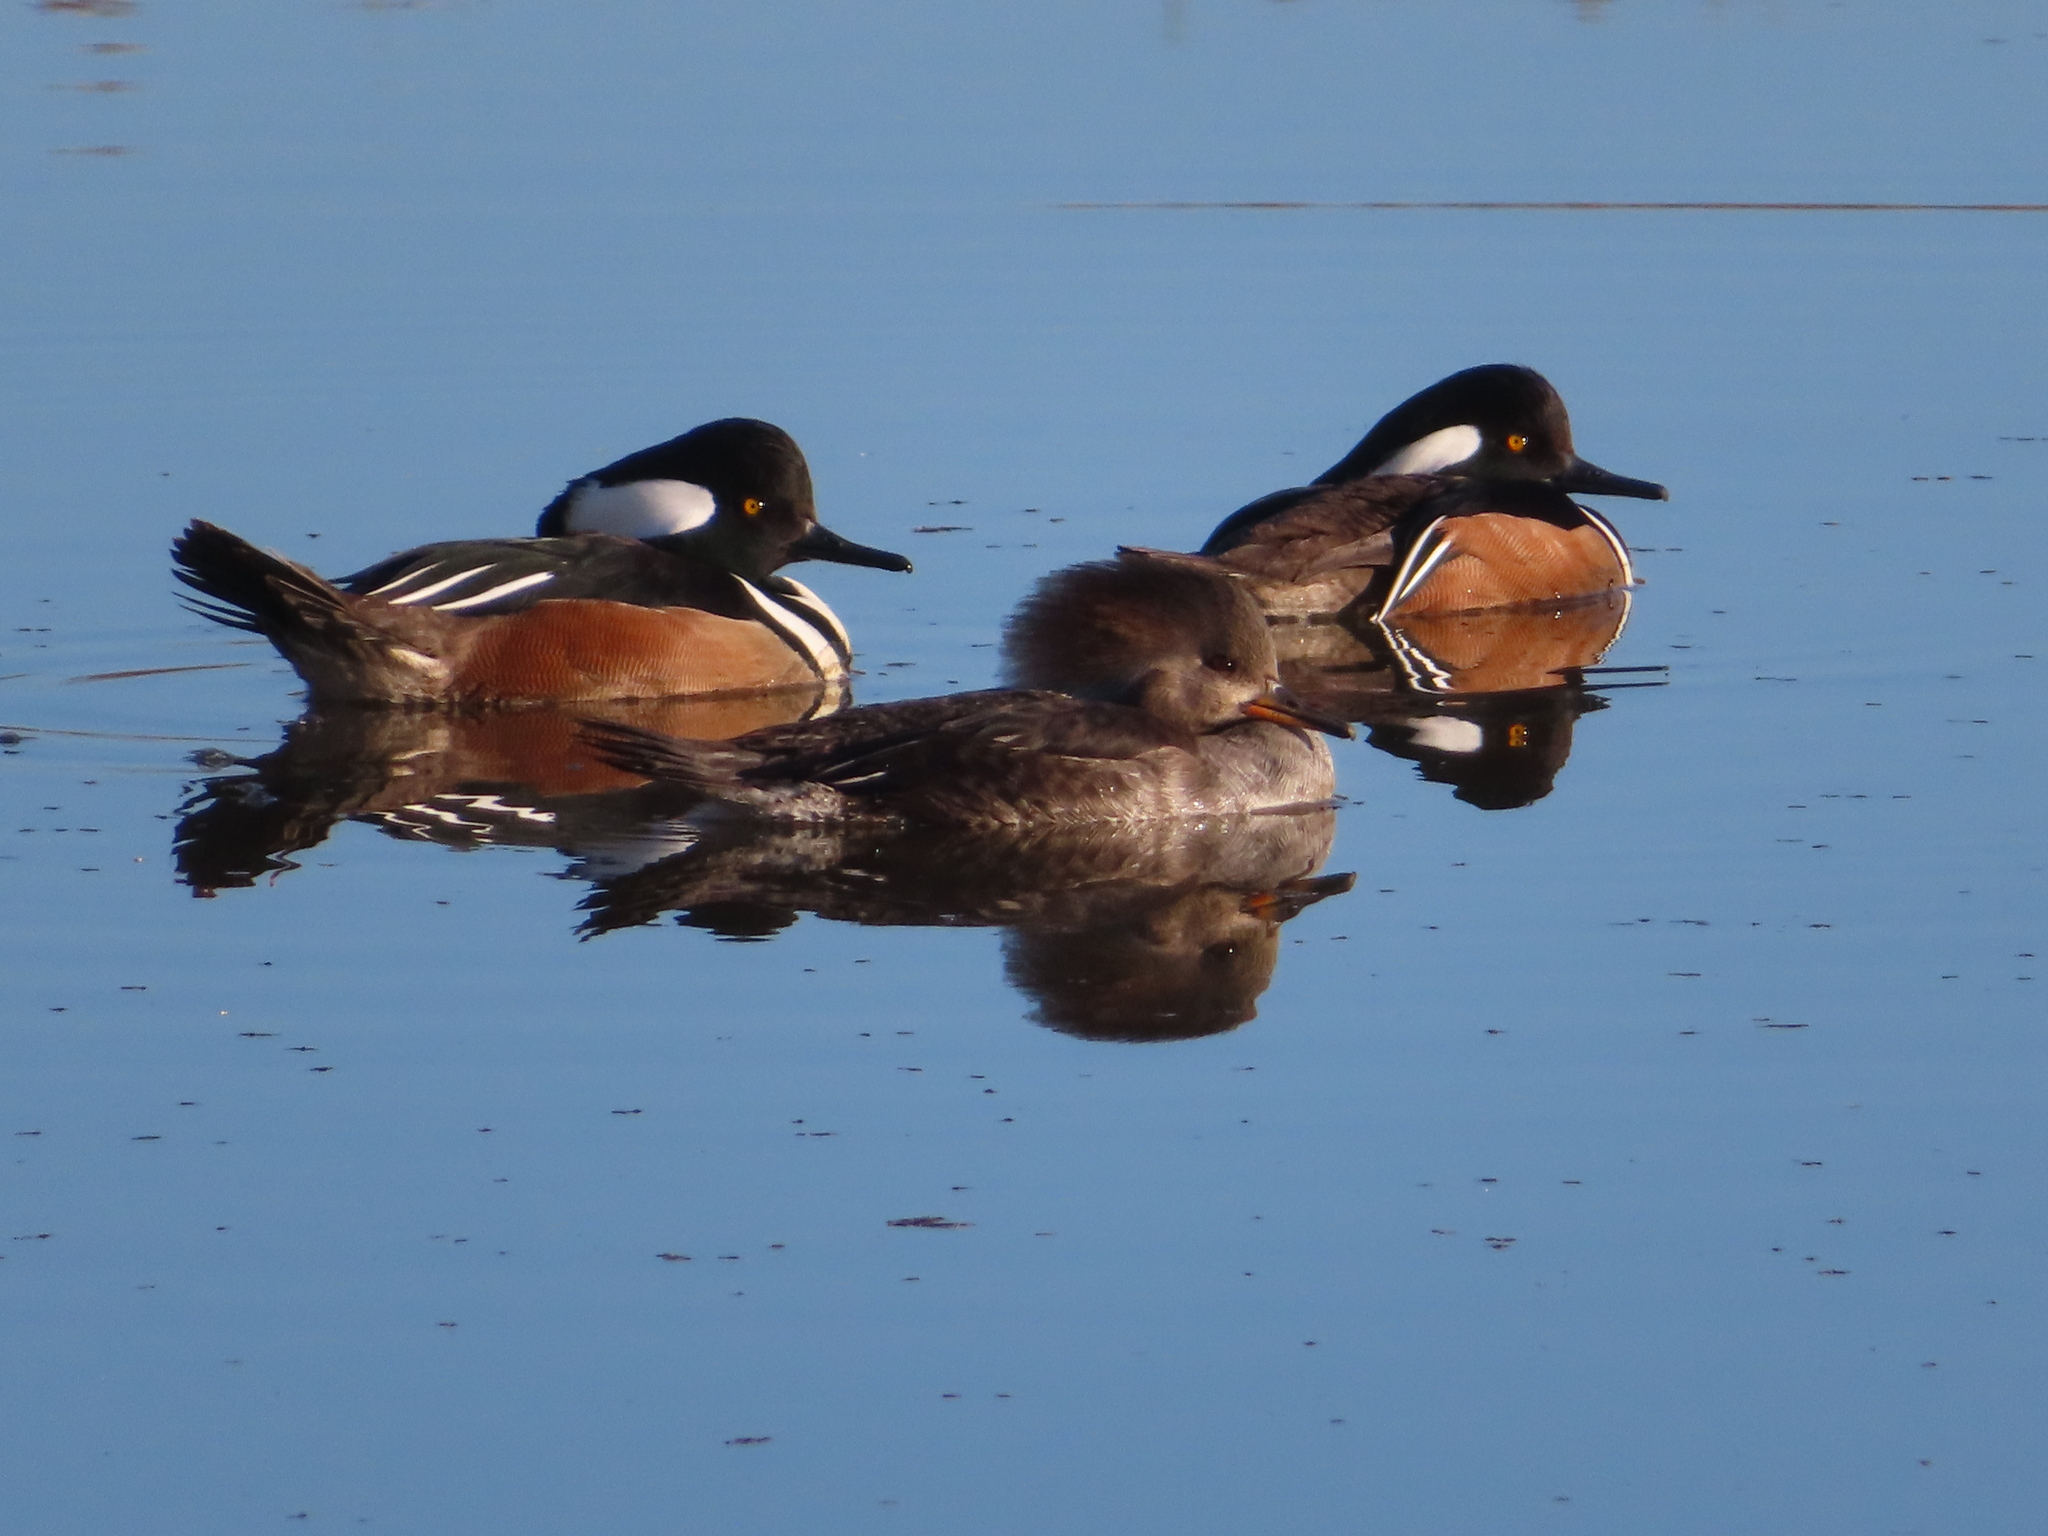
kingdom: Animalia
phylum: Chordata
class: Aves
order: Anseriformes
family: Anatidae
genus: Lophodytes
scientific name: Lophodytes cucullatus
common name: Hooded merganser
